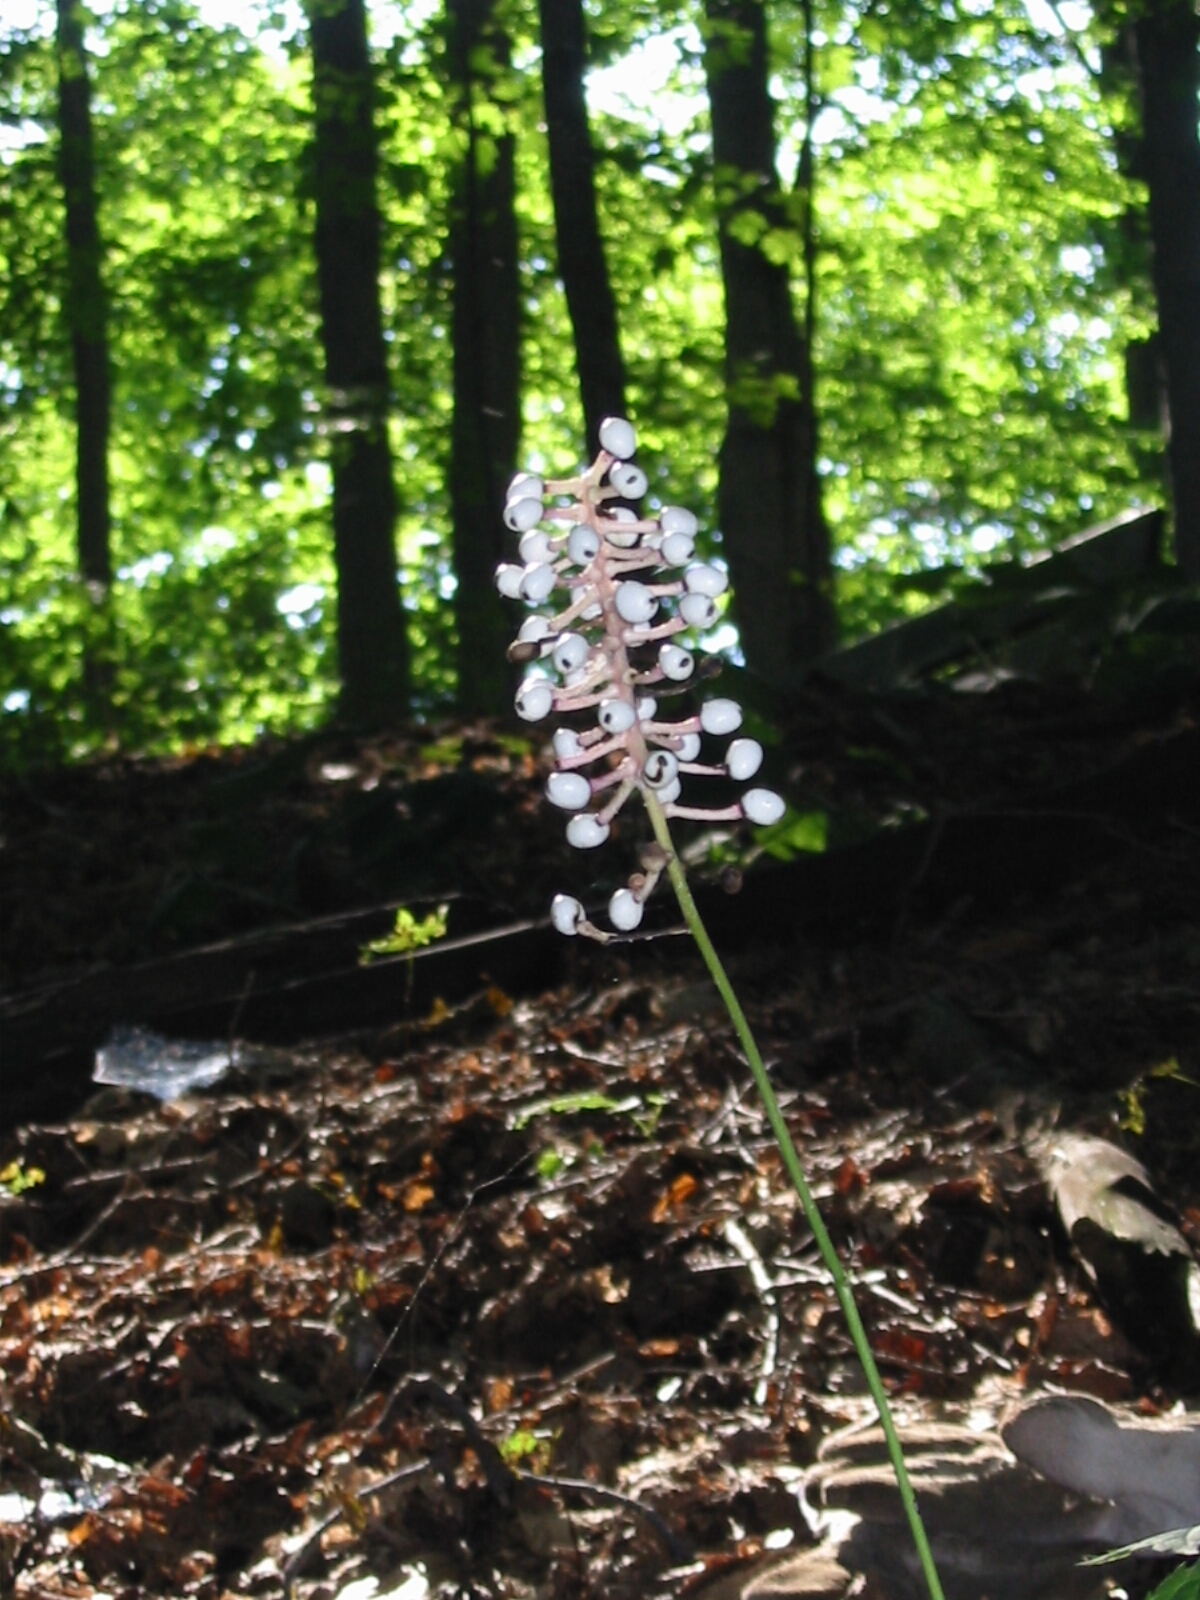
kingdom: Plantae
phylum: Tracheophyta
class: Magnoliopsida
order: Ranunculales
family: Ranunculaceae
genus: Actaea
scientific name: Actaea pachypoda
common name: Doll's-eyes
